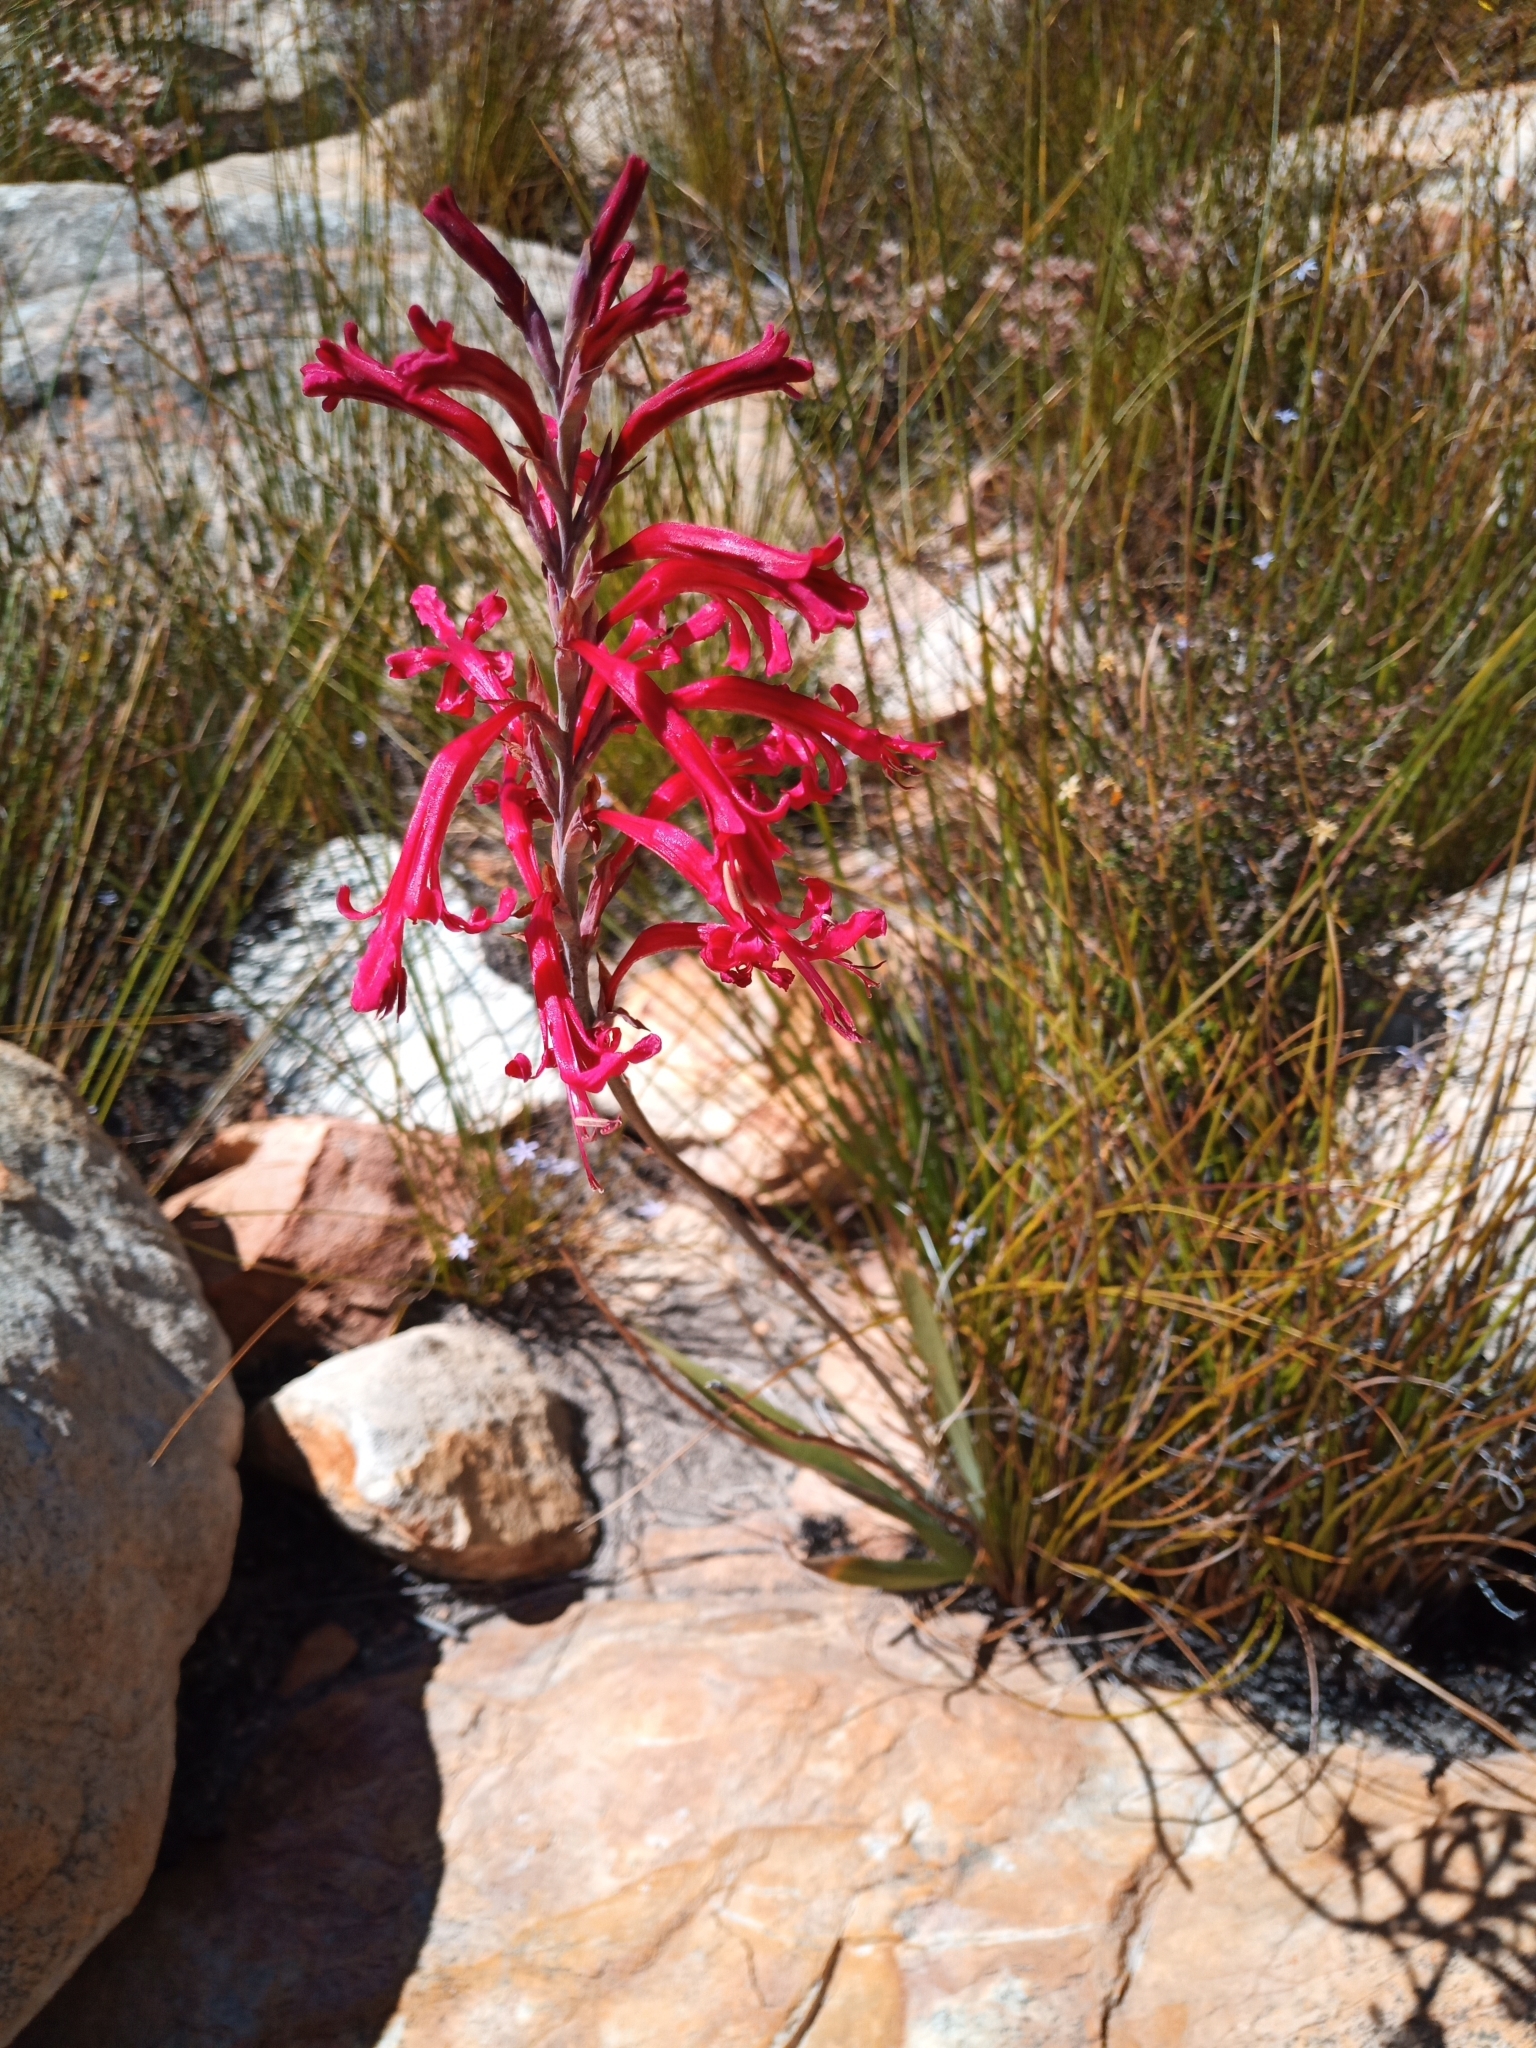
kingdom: Plantae
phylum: Tracheophyta
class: Liliopsida
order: Asparagales
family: Iridaceae
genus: Tritoniopsis
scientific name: Tritoniopsis antholyza
